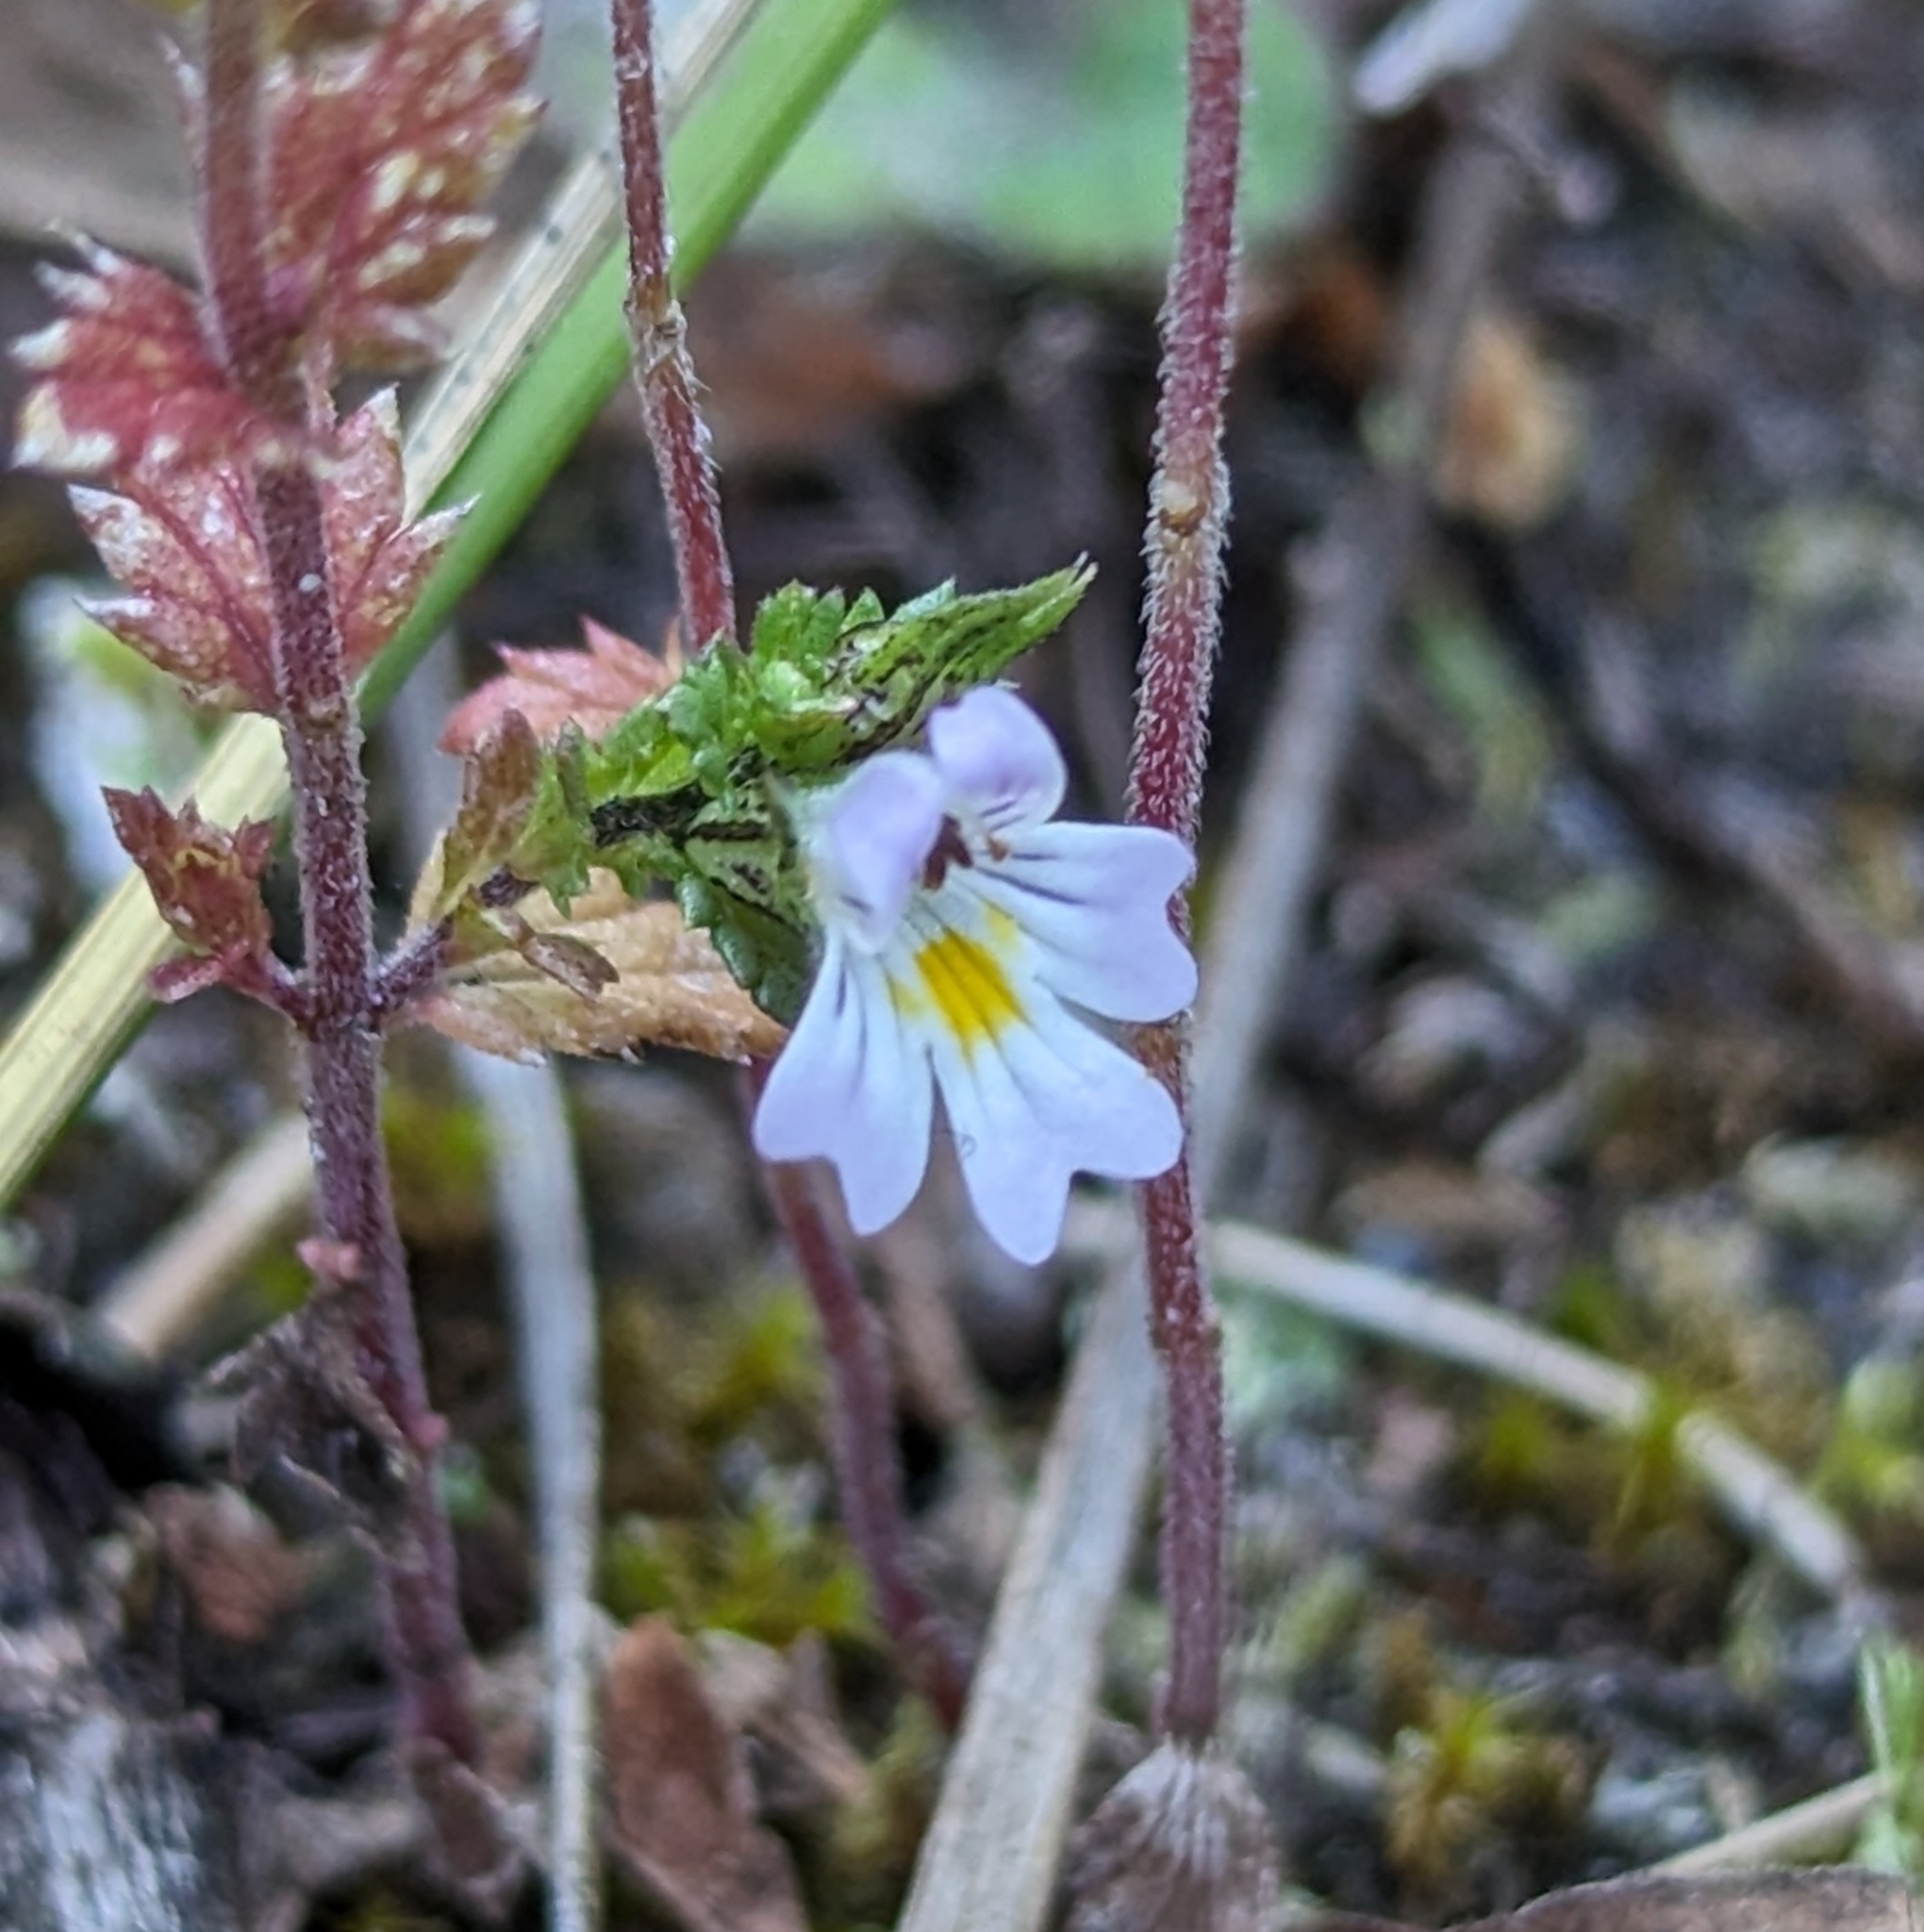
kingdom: Plantae
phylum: Tracheophyta
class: Magnoliopsida
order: Lamiales
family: Orobanchaceae
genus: Euphrasia
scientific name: Euphrasia nemorosa
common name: Common eyebright
